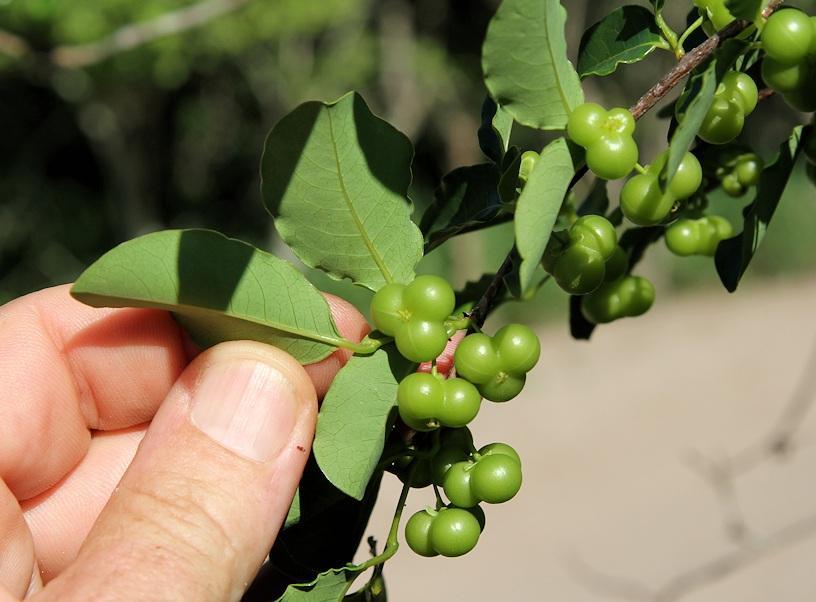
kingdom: Plantae
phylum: Tracheophyta
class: Magnoliopsida
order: Malpighiales
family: Phyllanthaceae
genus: Margaritaria
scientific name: Margaritaria discoidea
